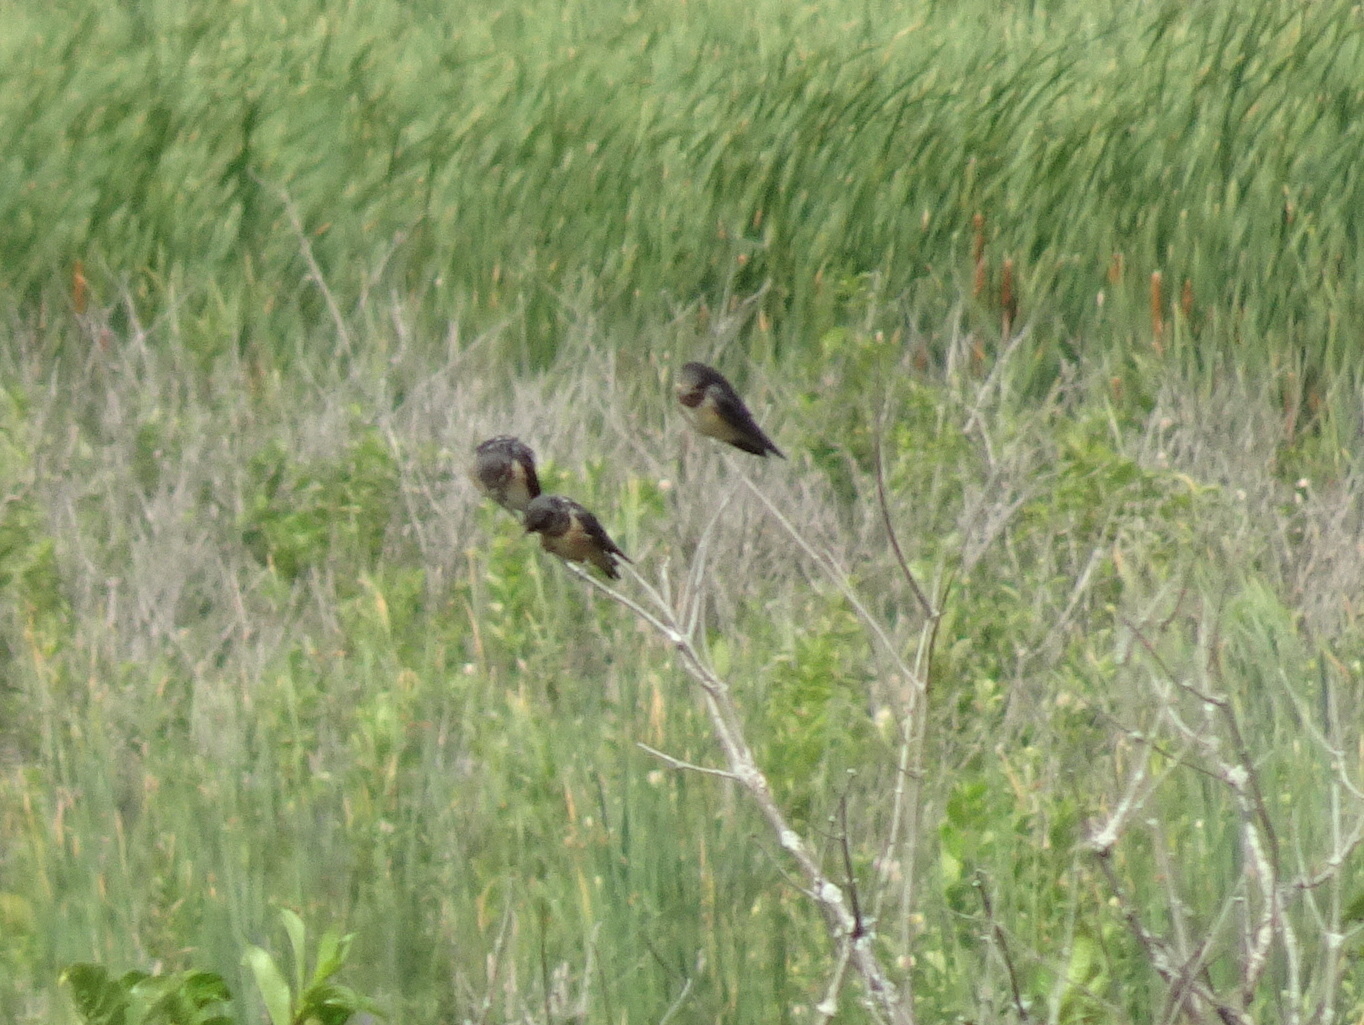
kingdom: Animalia
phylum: Chordata
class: Aves
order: Passeriformes
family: Hirundinidae
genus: Hirundo
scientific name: Hirundo rustica
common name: Barn swallow
